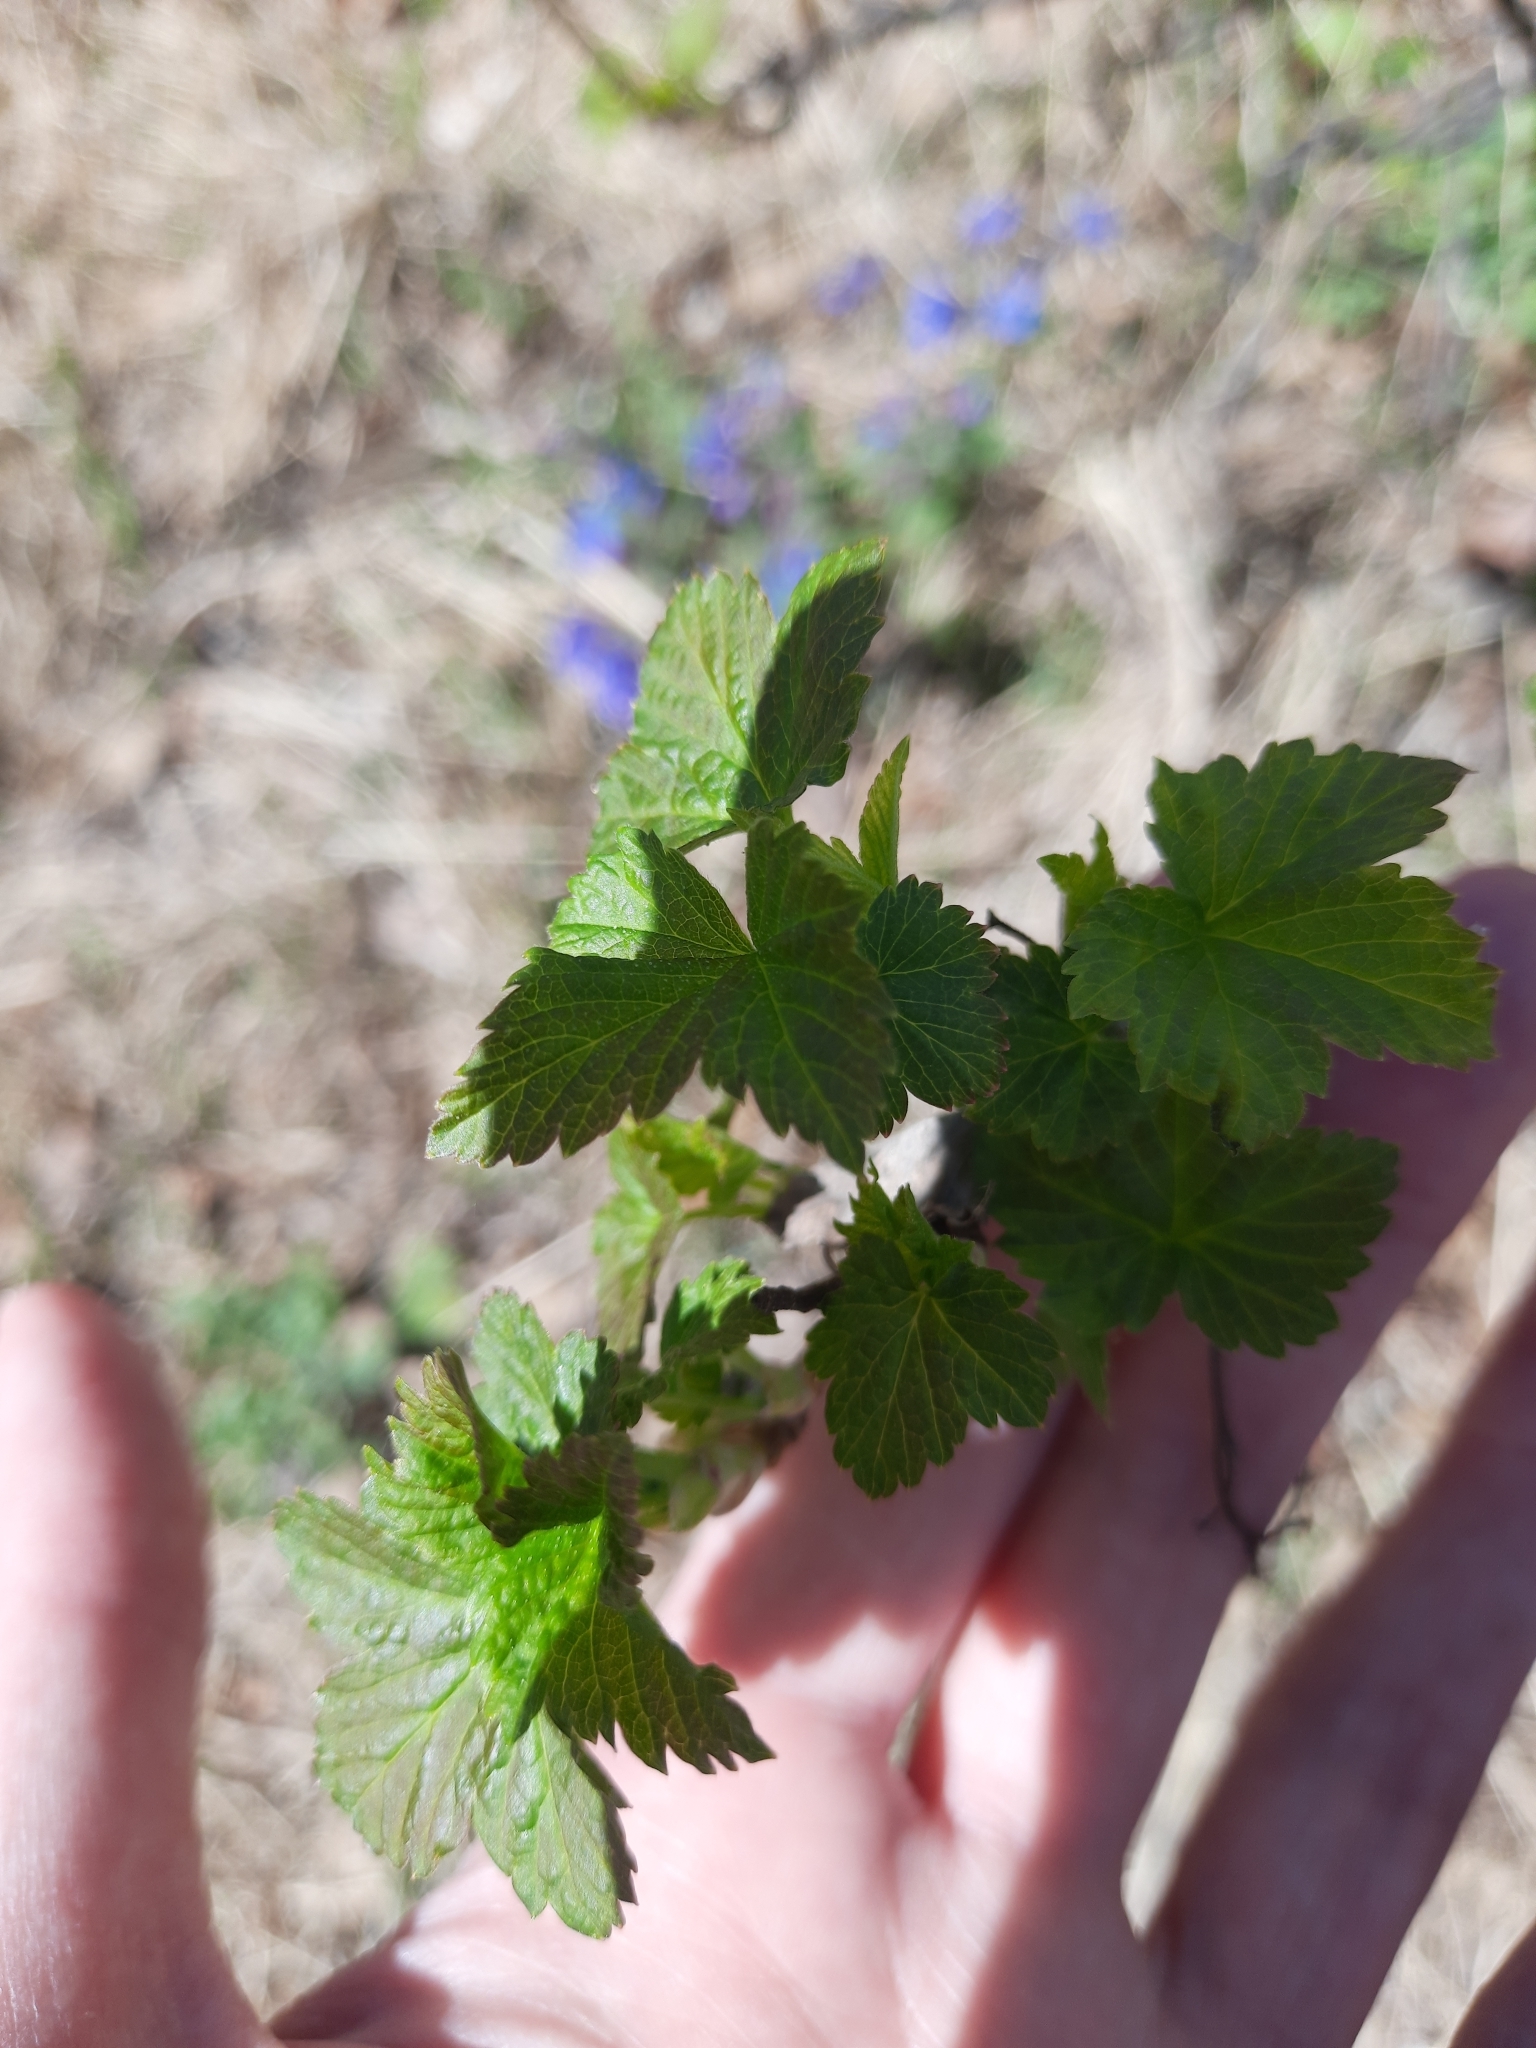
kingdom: Plantae
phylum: Tracheophyta
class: Magnoliopsida
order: Saxifragales
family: Grossulariaceae
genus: Ribes
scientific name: Ribes nigrum
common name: Black currant
